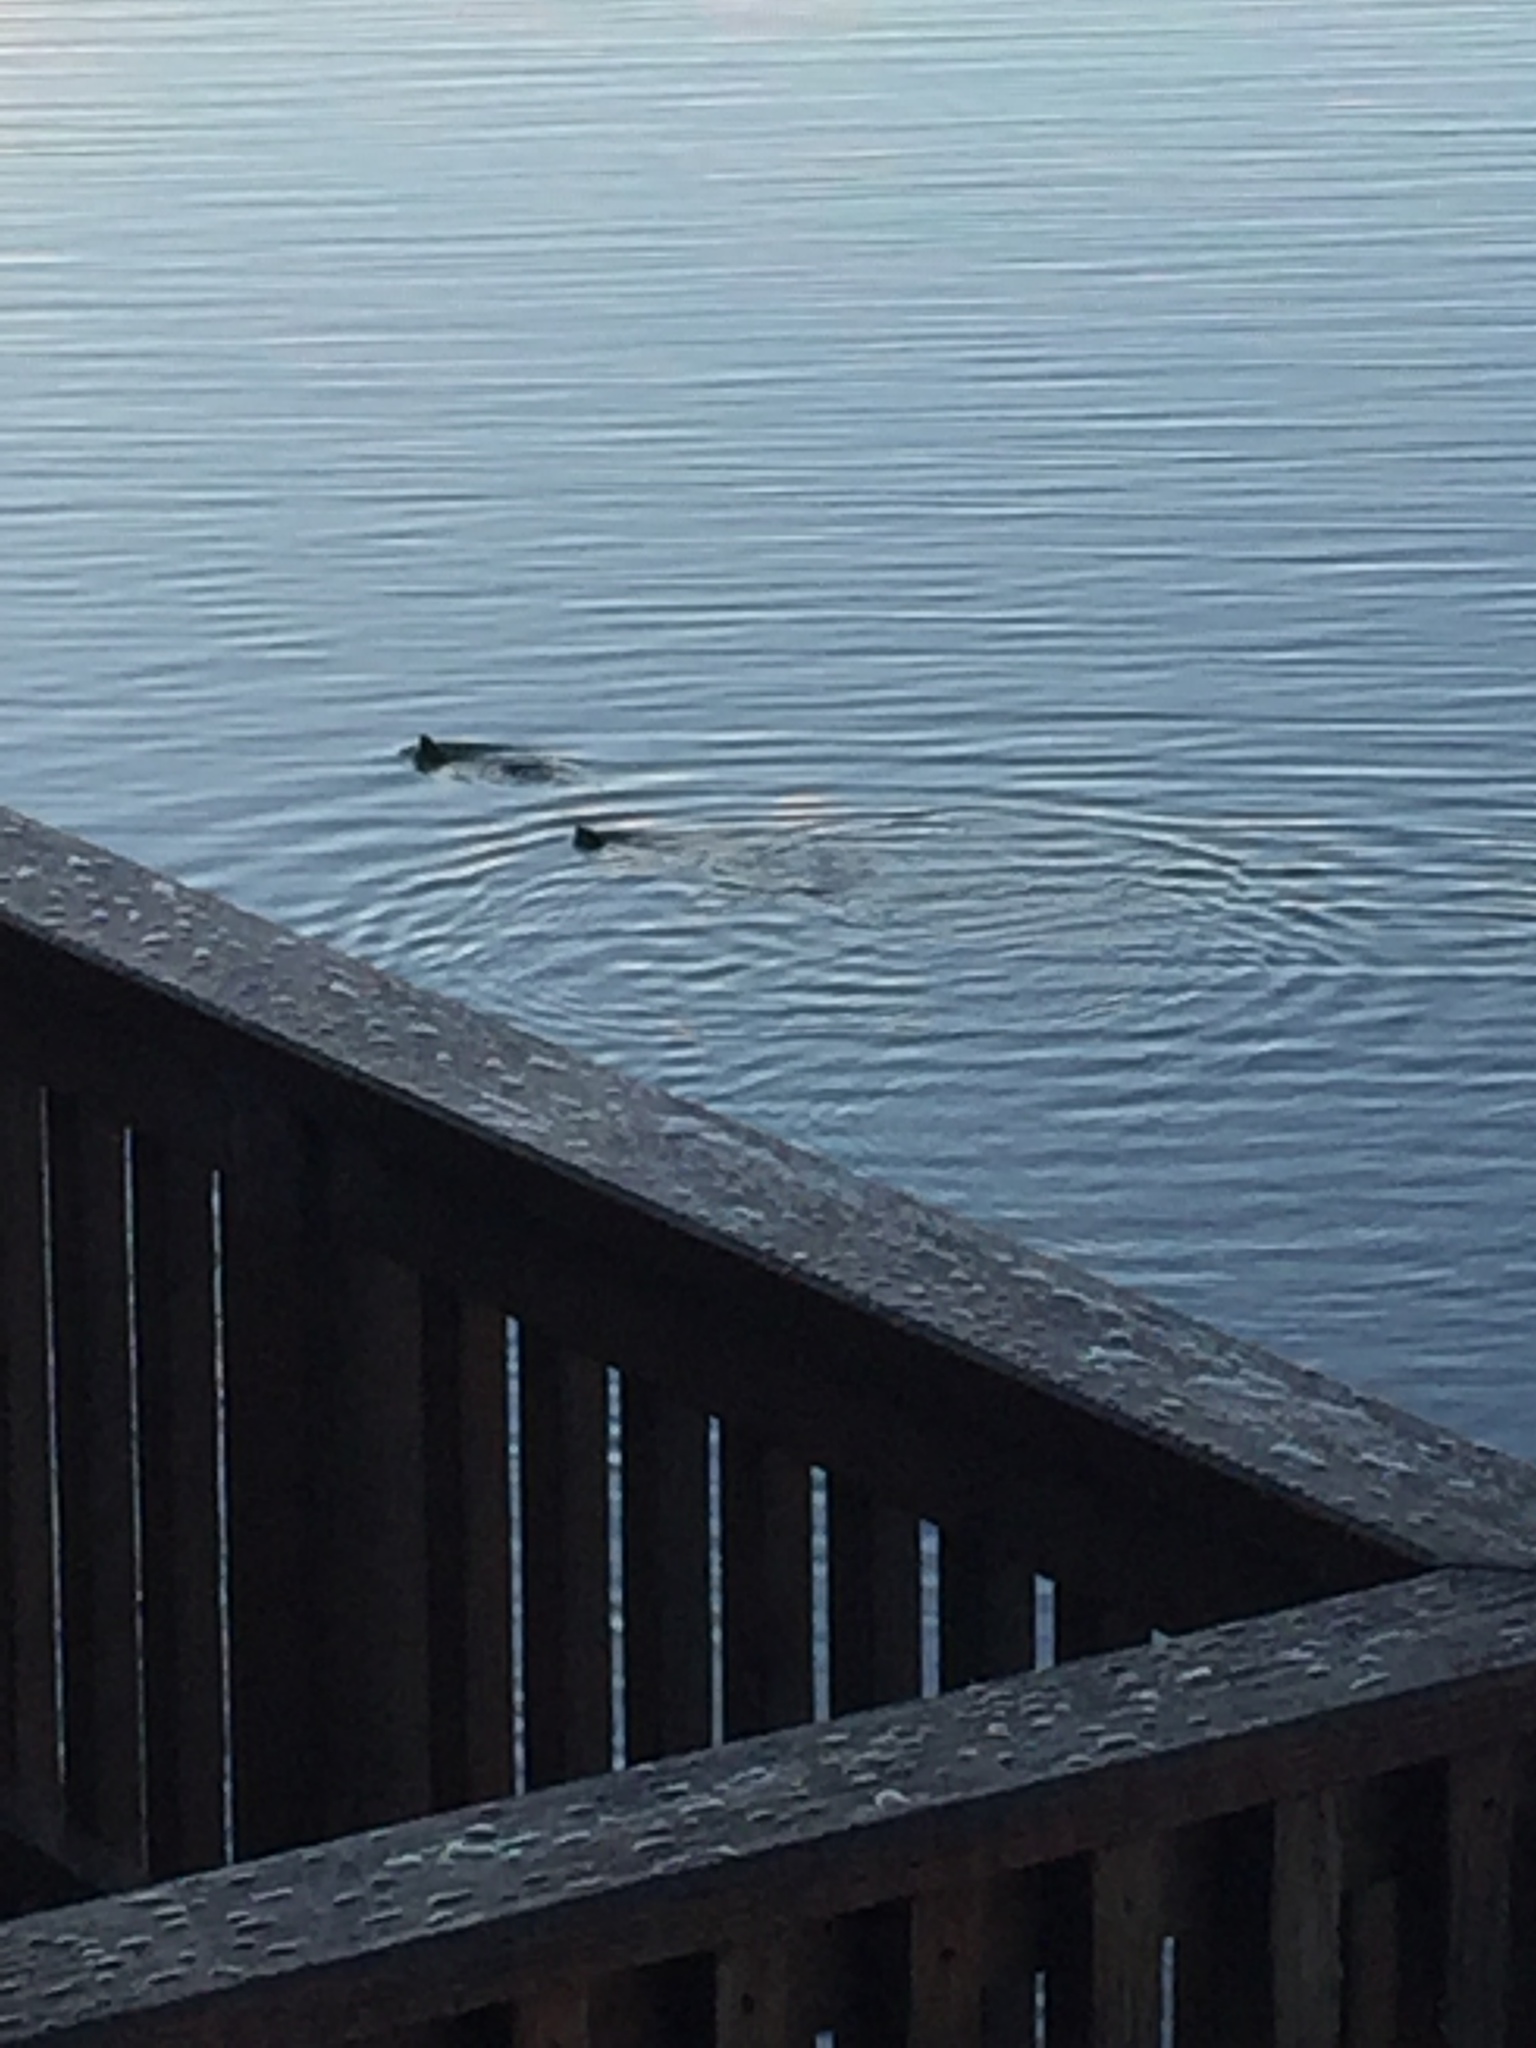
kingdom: Animalia
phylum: Chordata
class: Mammalia
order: Carnivora
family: Mustelidae
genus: Lontra
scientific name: Lontra canadensis
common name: North american river otter
